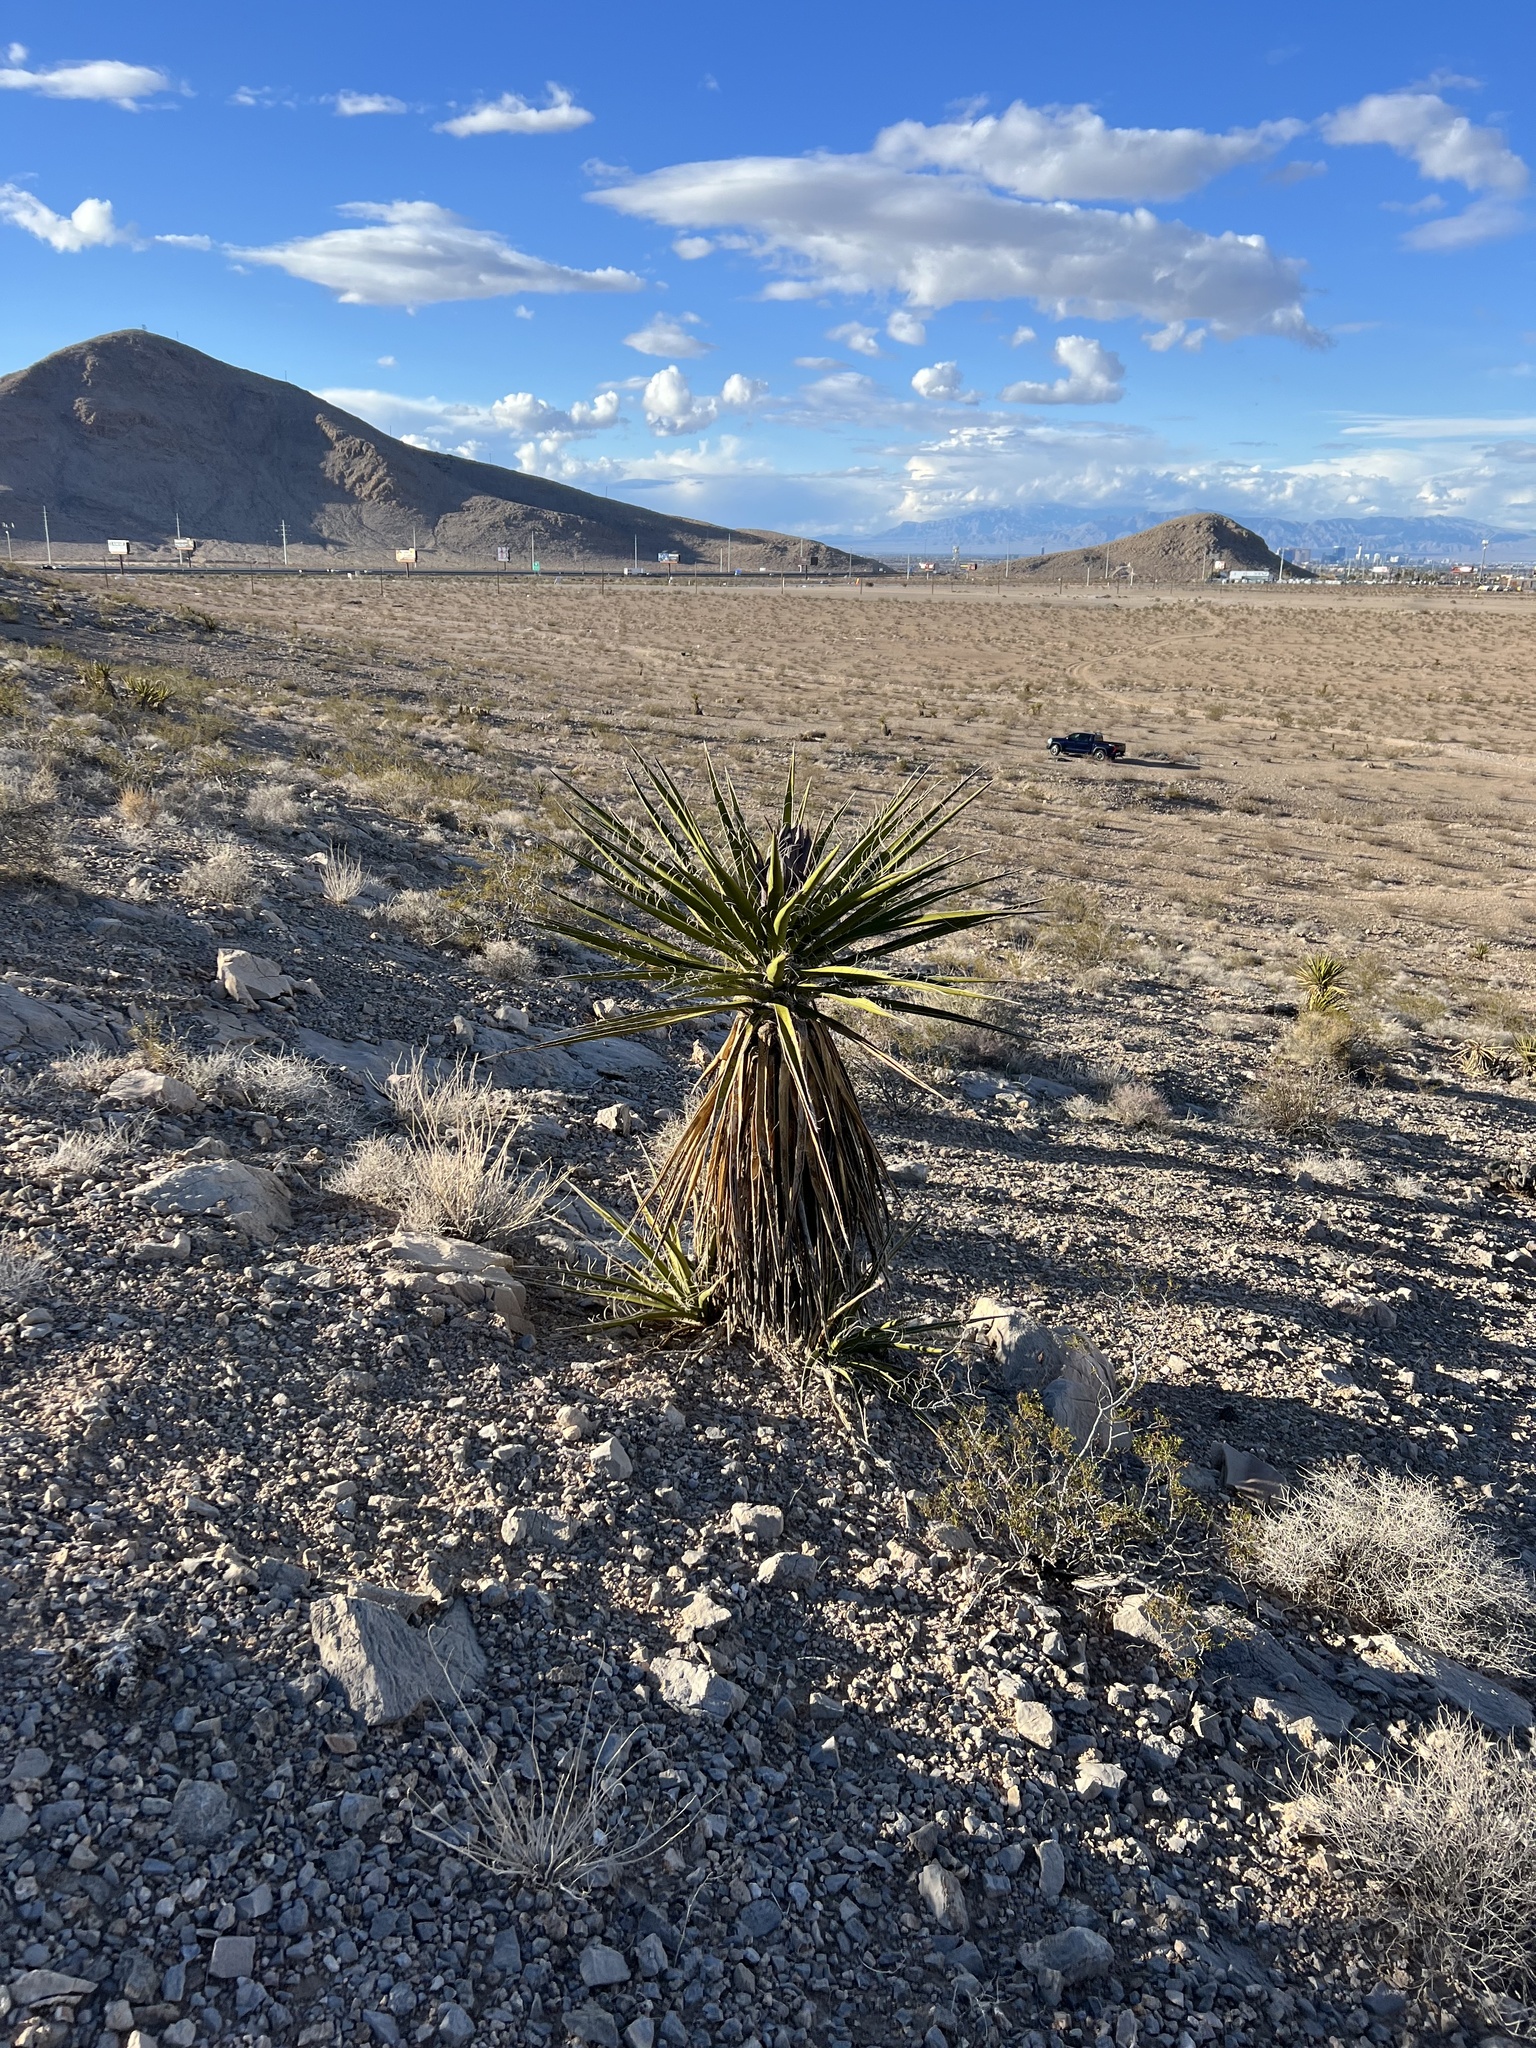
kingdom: Plantae
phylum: Tracheophyta
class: Liliopsida
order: Asparagales
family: Asparagaceae
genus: Yucca
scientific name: Yucca schidigera
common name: Mojave yucca
